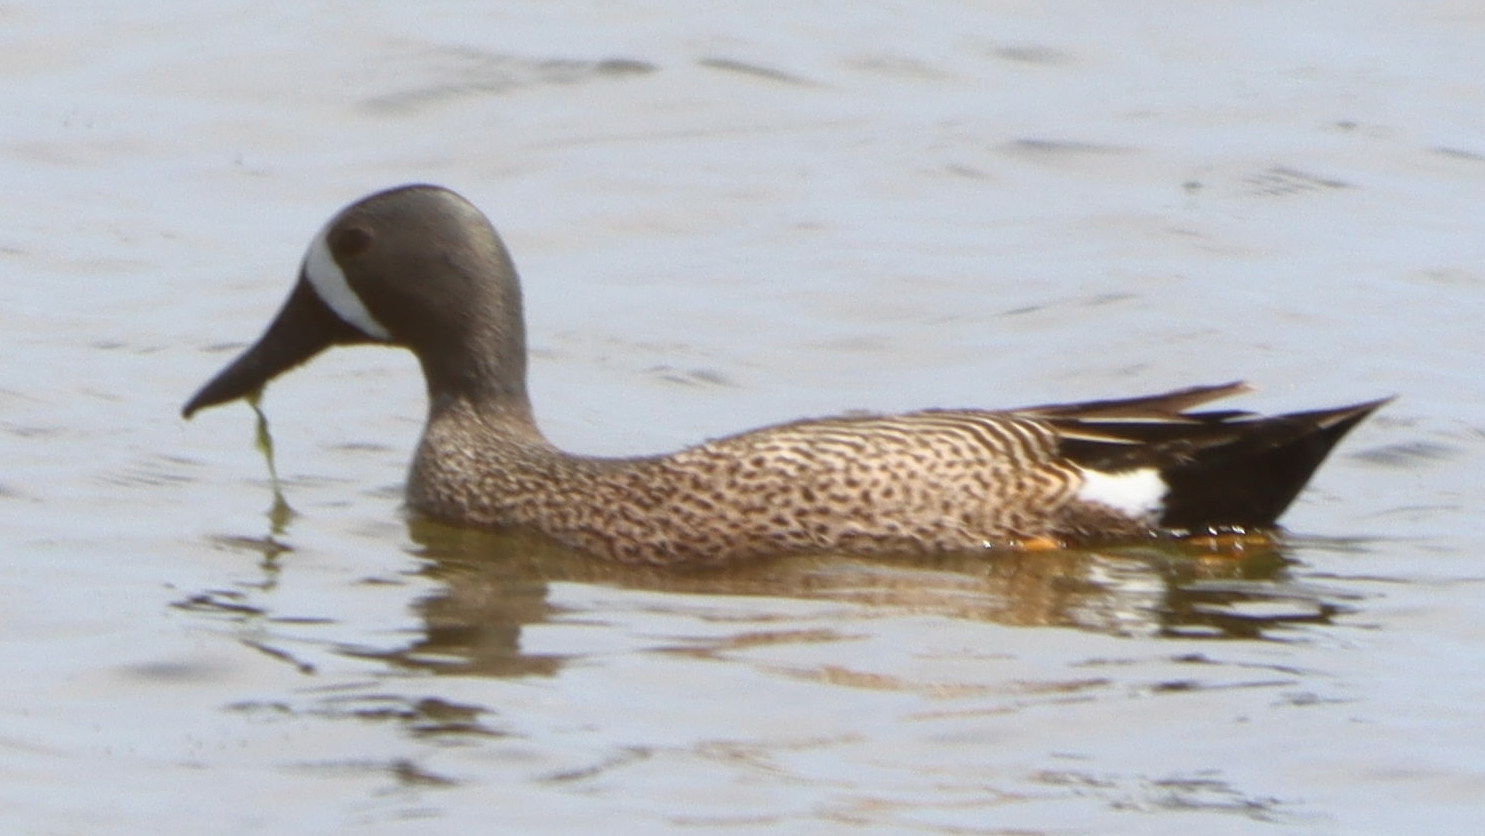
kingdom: Animalia
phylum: Chordata
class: Aves
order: Anseriformes
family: Anatidae
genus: Spatula
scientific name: Spatula discors
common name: Blue-winged teal
